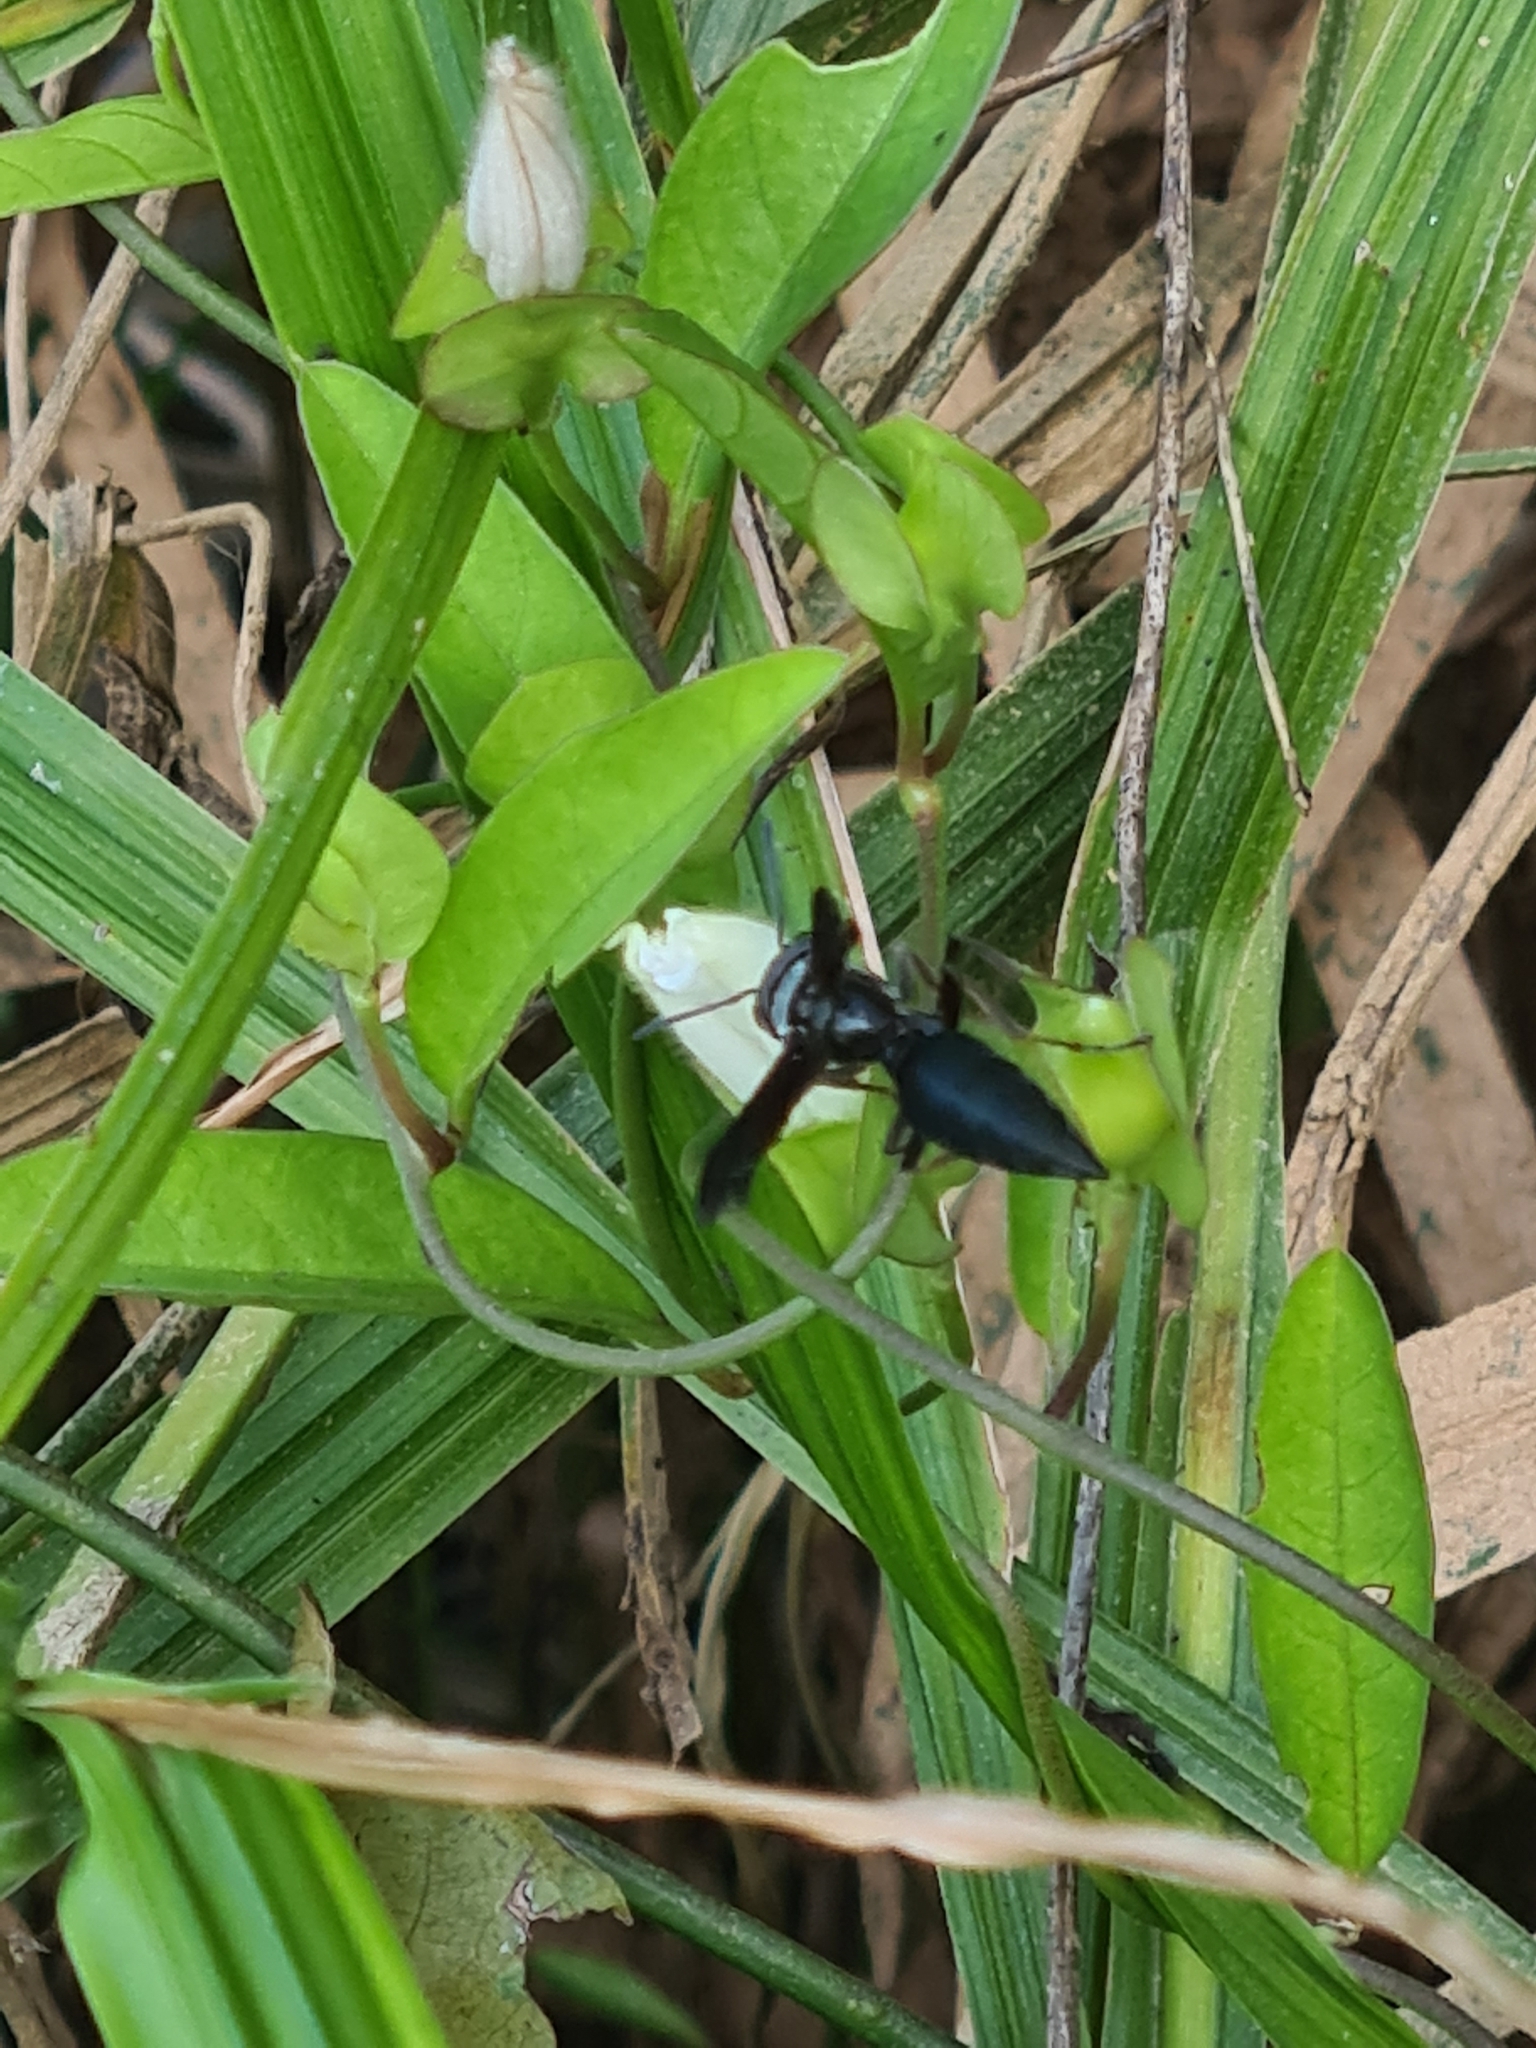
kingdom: Animalia
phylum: Arthropoda
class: Insecta
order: Hymenoptera
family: Vespidae
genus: Synoeca
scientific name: Synoeca surinama
